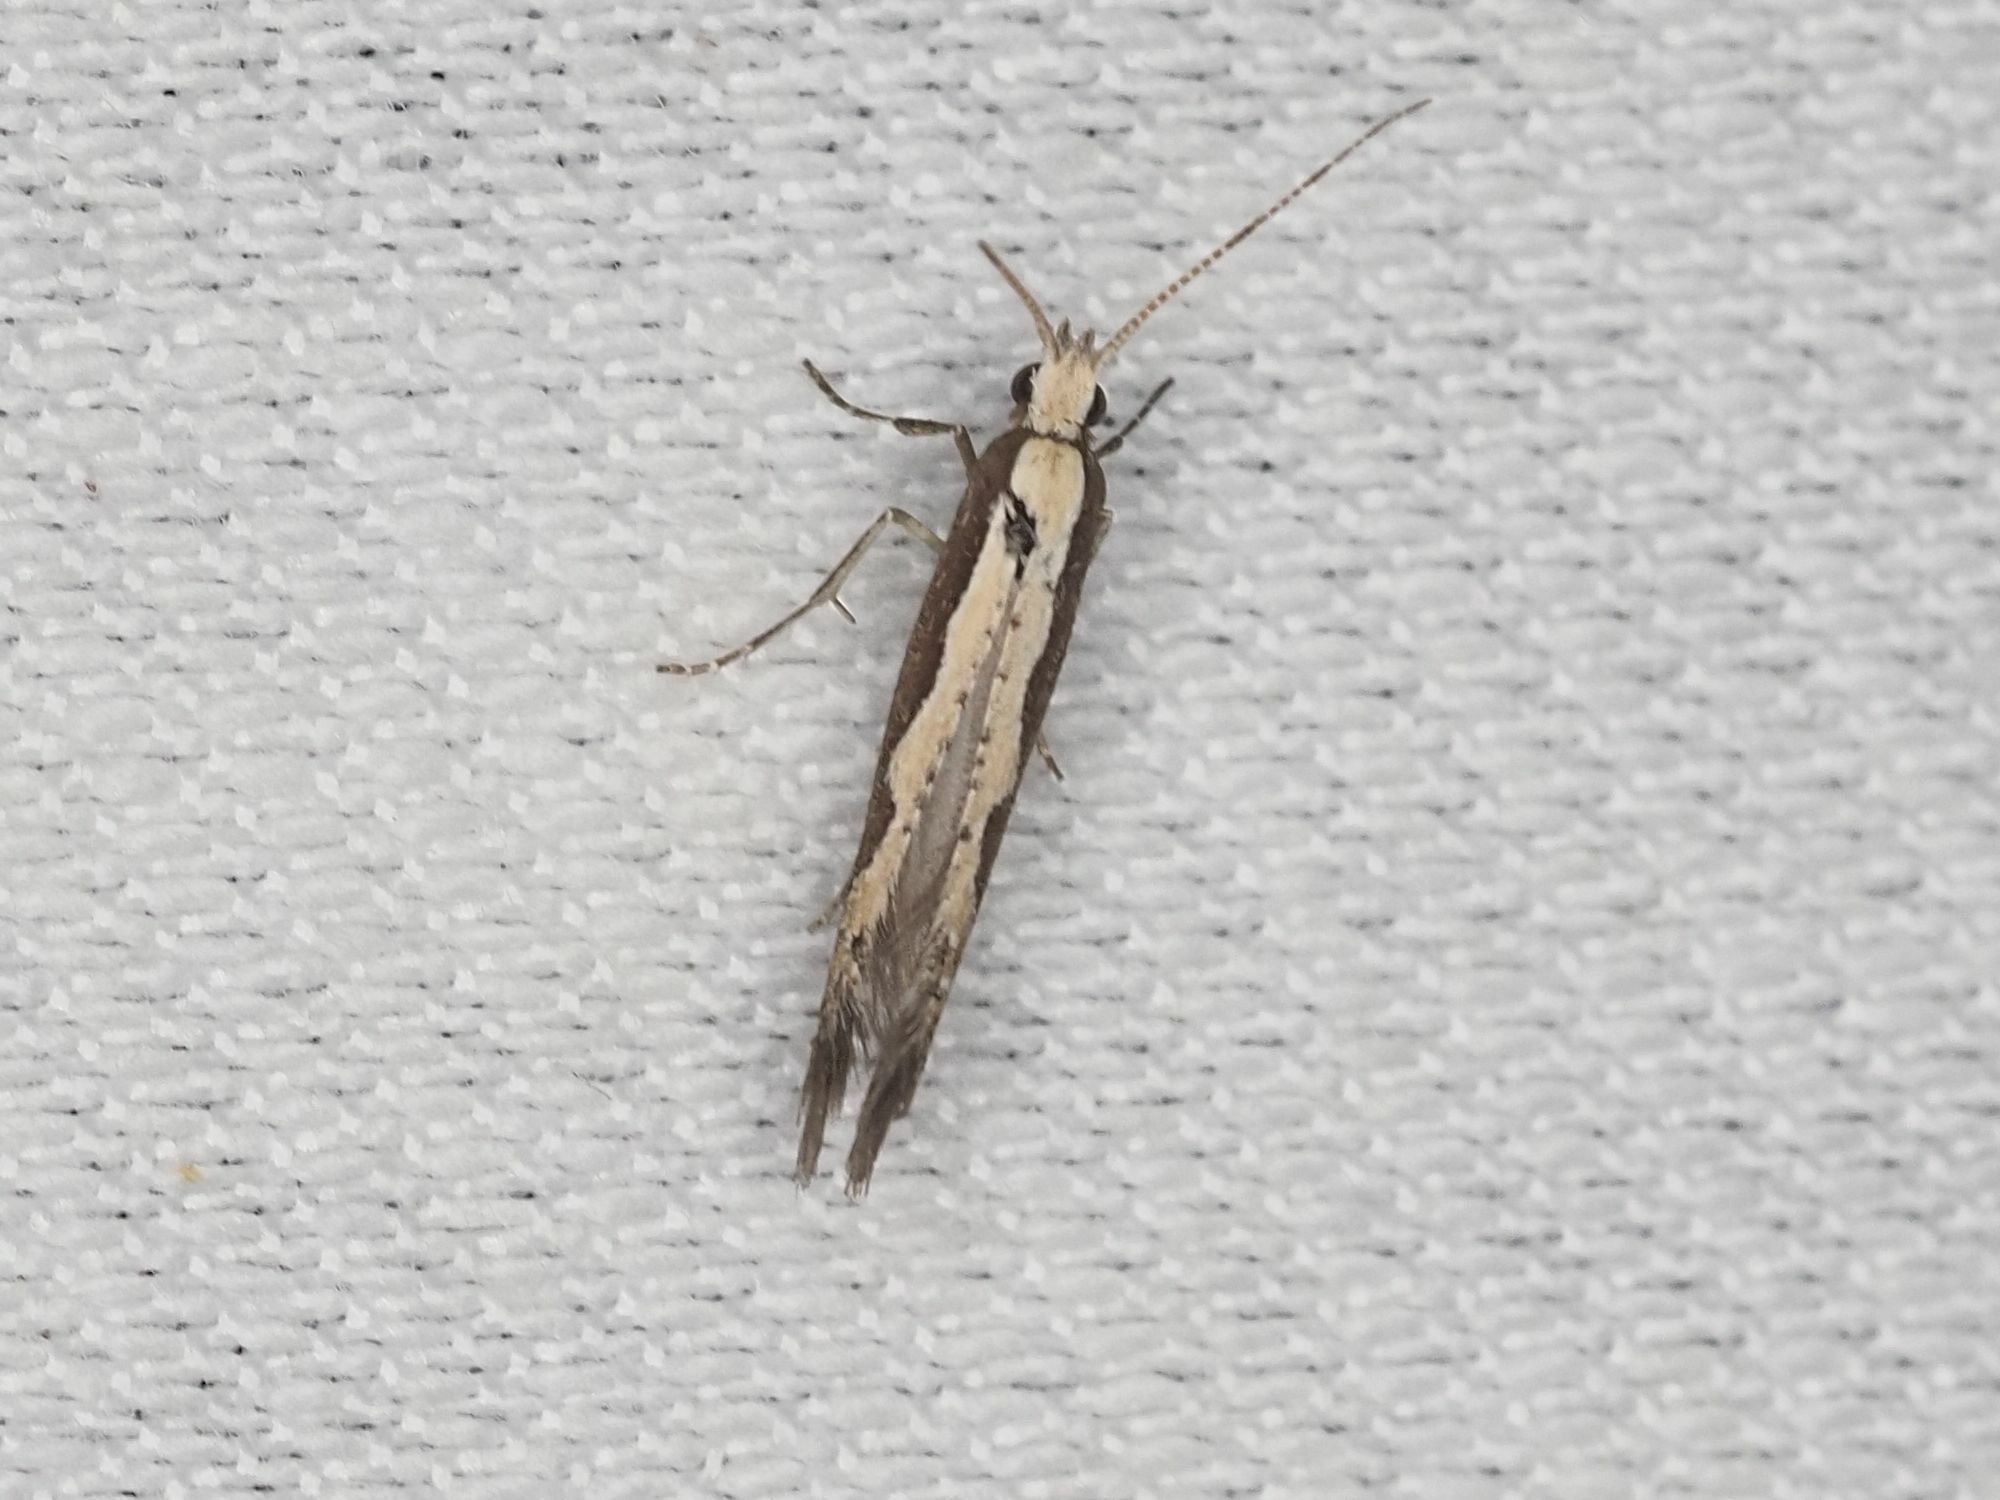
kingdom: Animalia
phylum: Arthropoda
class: Insecta
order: Lepidoptera
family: Plutellidae
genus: Plutella
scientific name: Plutella xylostella
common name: Diamond-back moth
